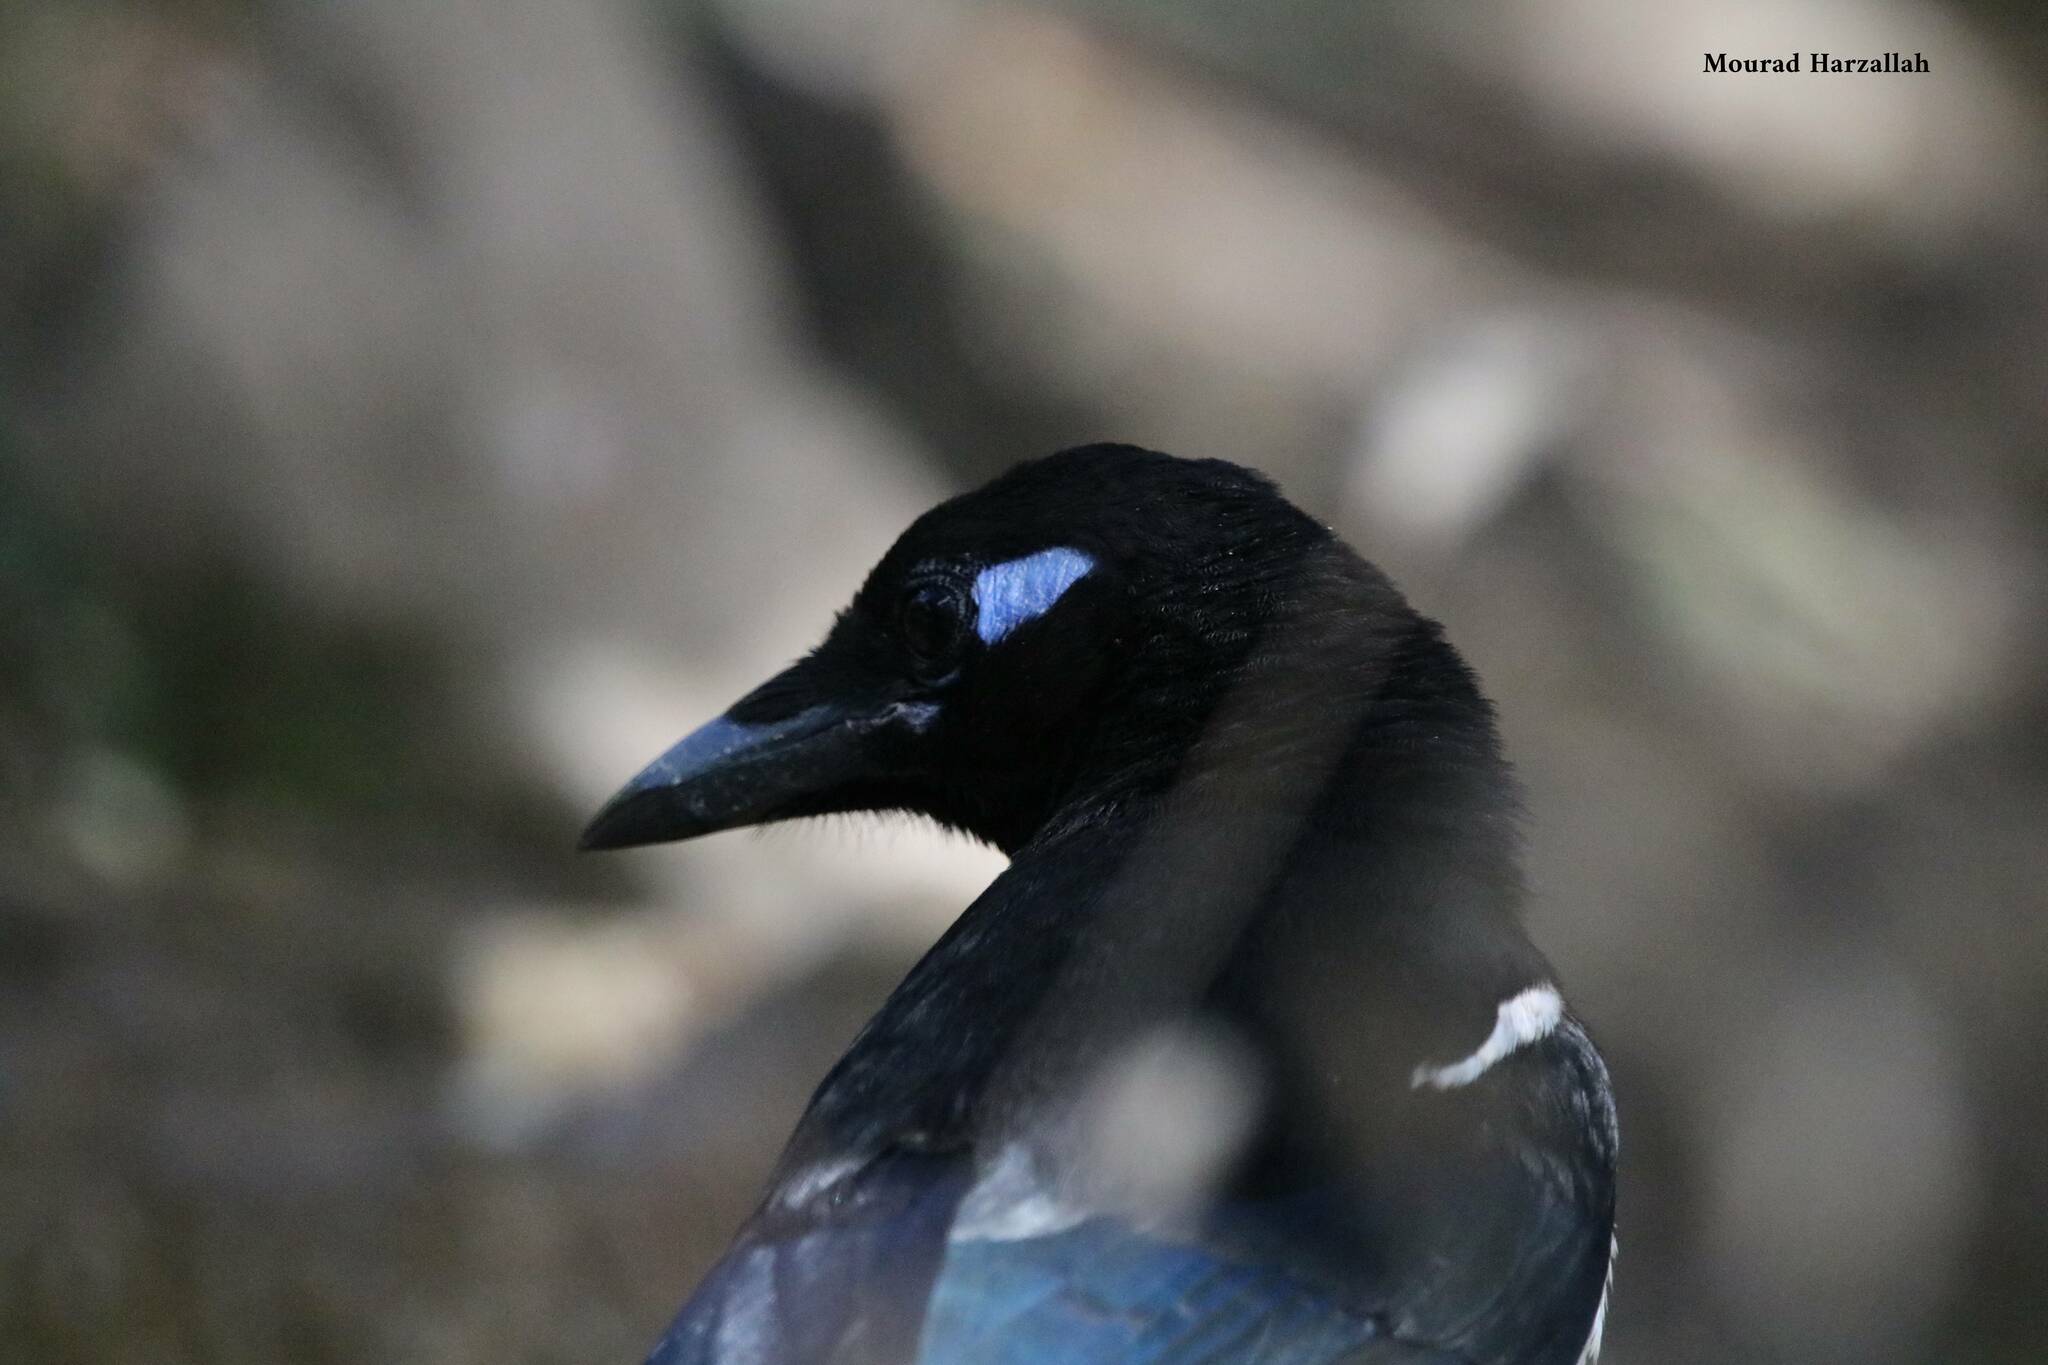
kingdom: Animalia
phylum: Chordata
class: Aves
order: Passeriformes
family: Corvidae
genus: Pica
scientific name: Pica mauritanica
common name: Maghreb magpie
